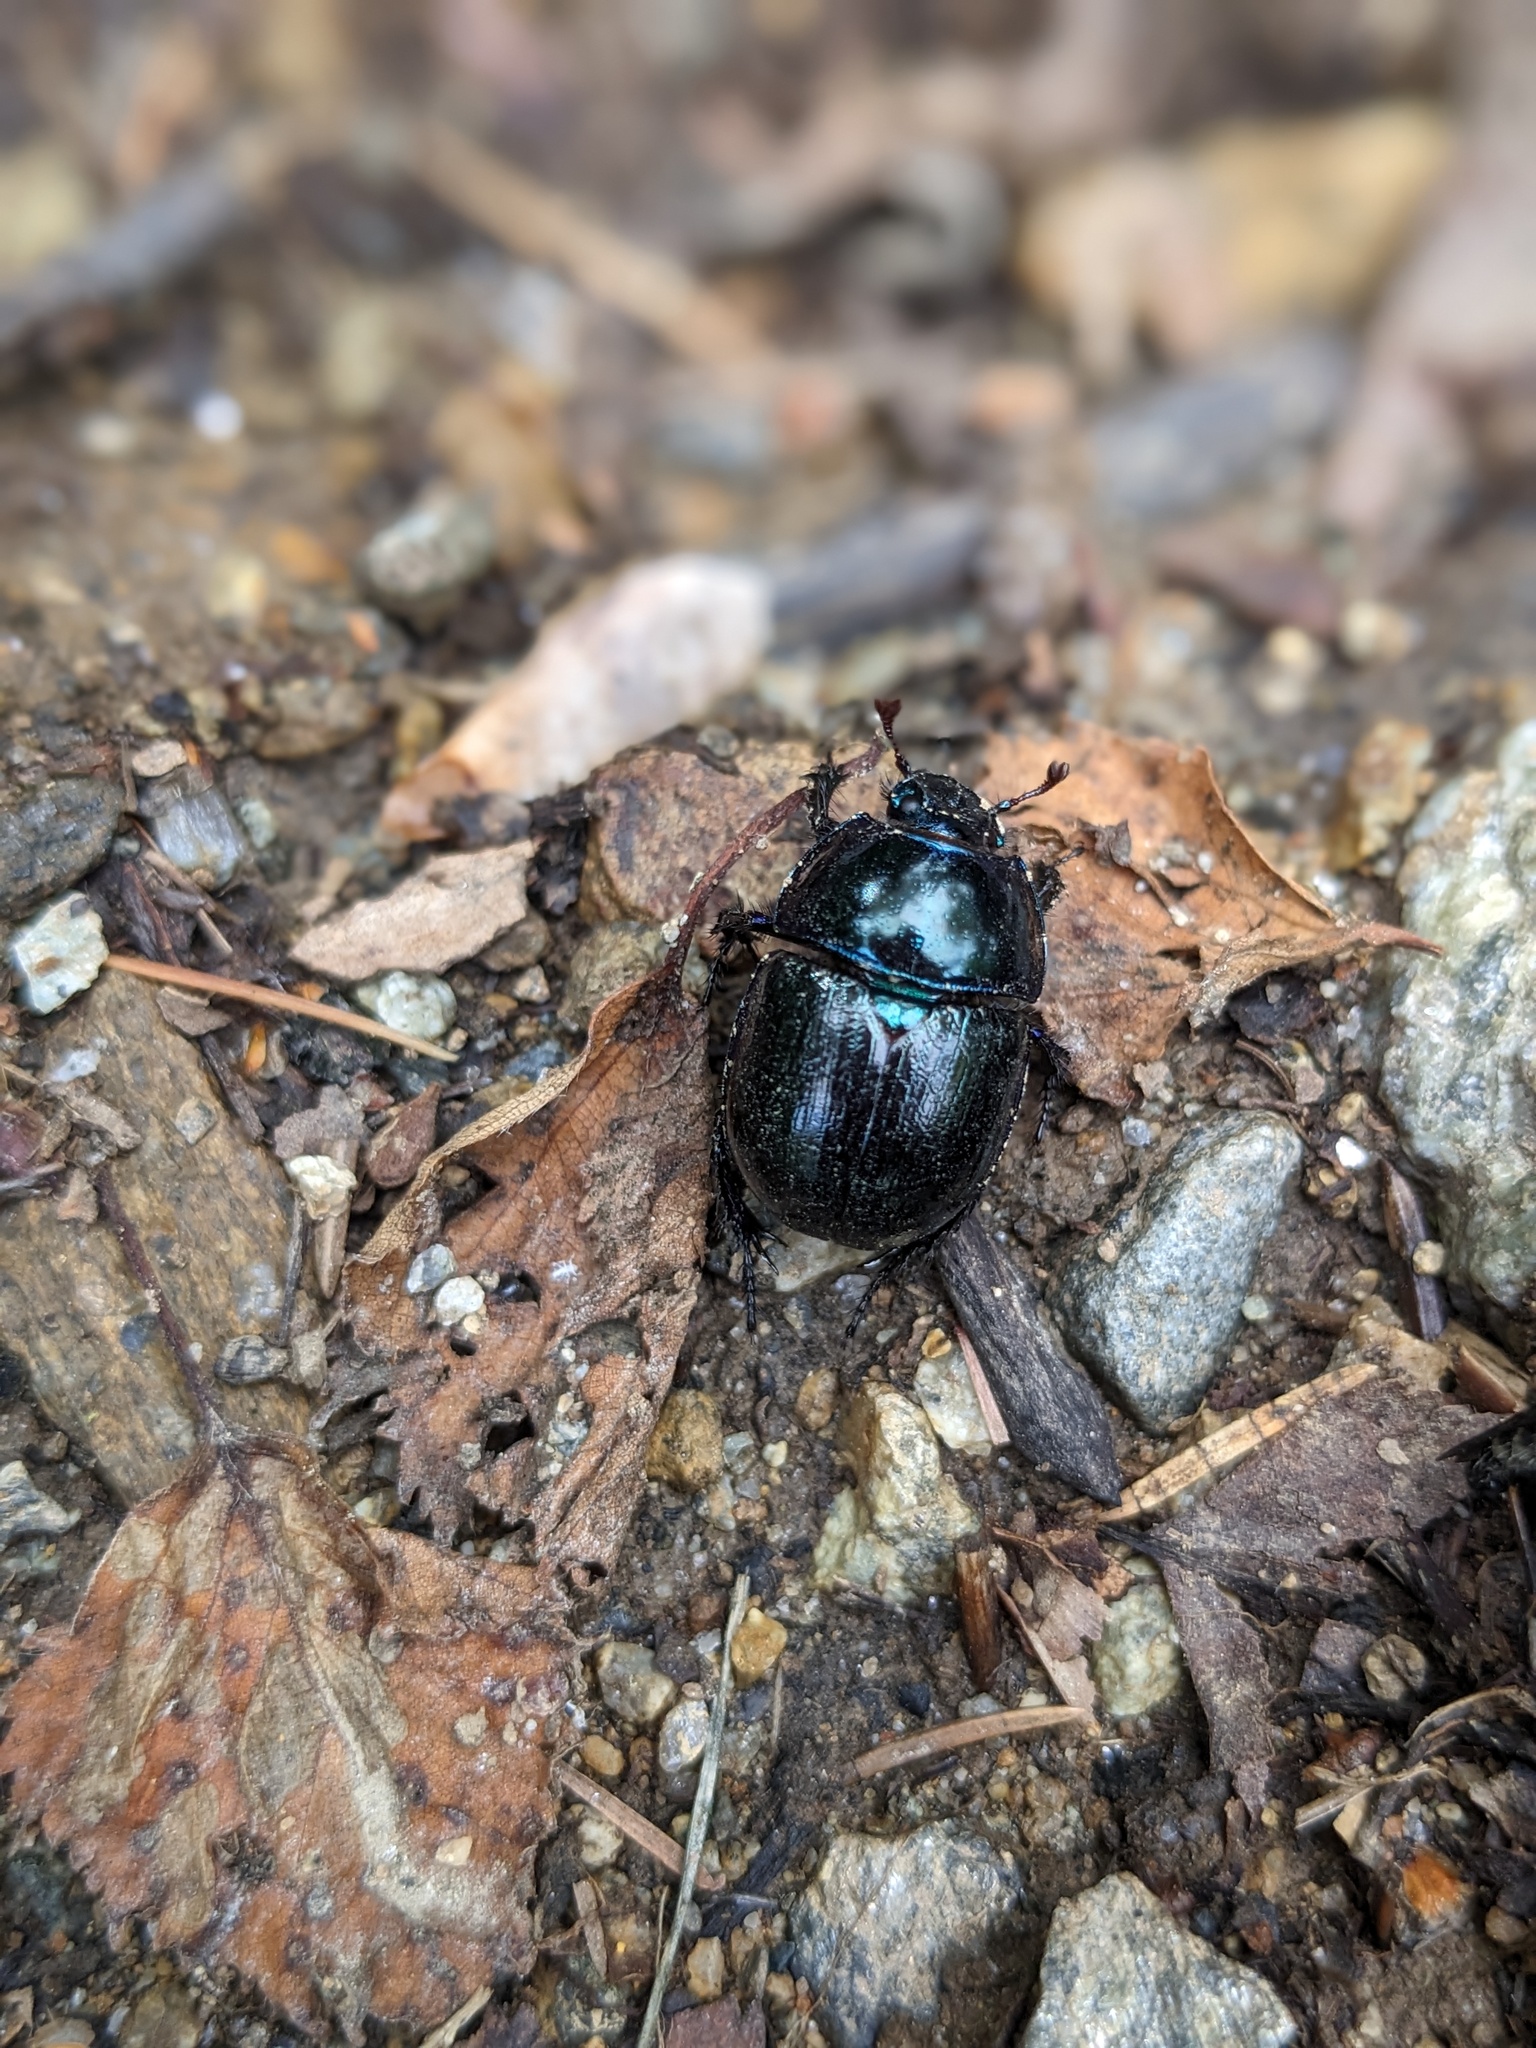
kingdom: Animalia
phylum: Arthropoda
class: Insecta
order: Coleoptera
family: Geotrupidae
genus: Anoplotrupes
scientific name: Anoplotrupes stercorosus
